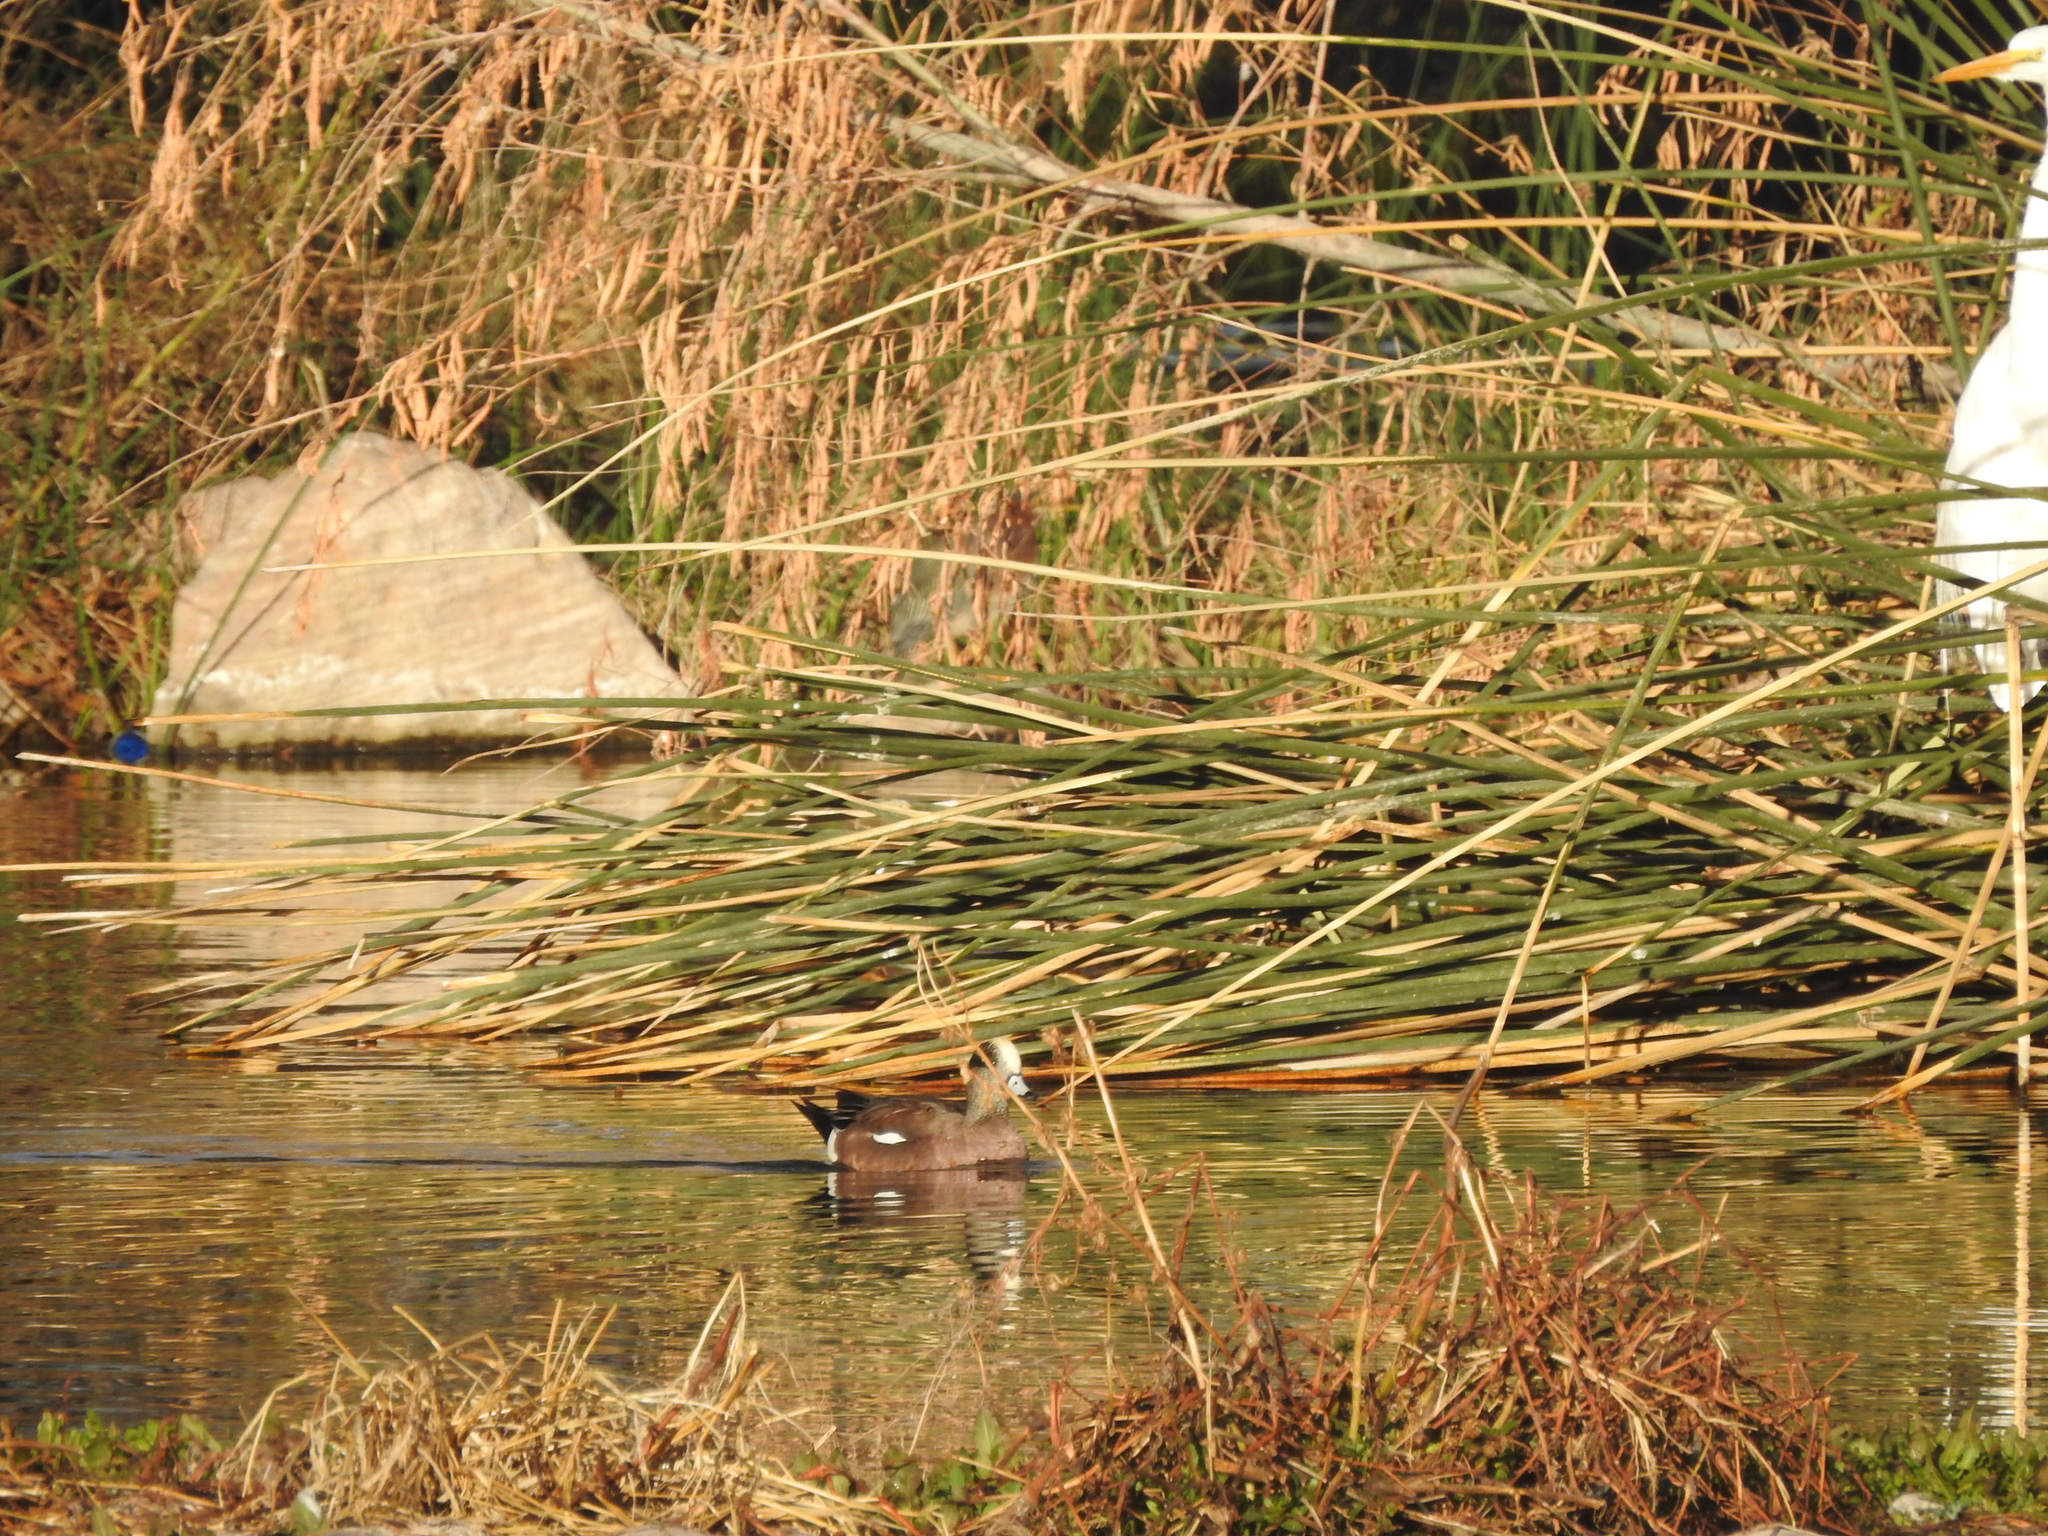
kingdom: Animalia
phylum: Chordata
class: Aves
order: Anseriformes
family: Anatidae
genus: Mareca
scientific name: Mareca americana
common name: American wigeon
